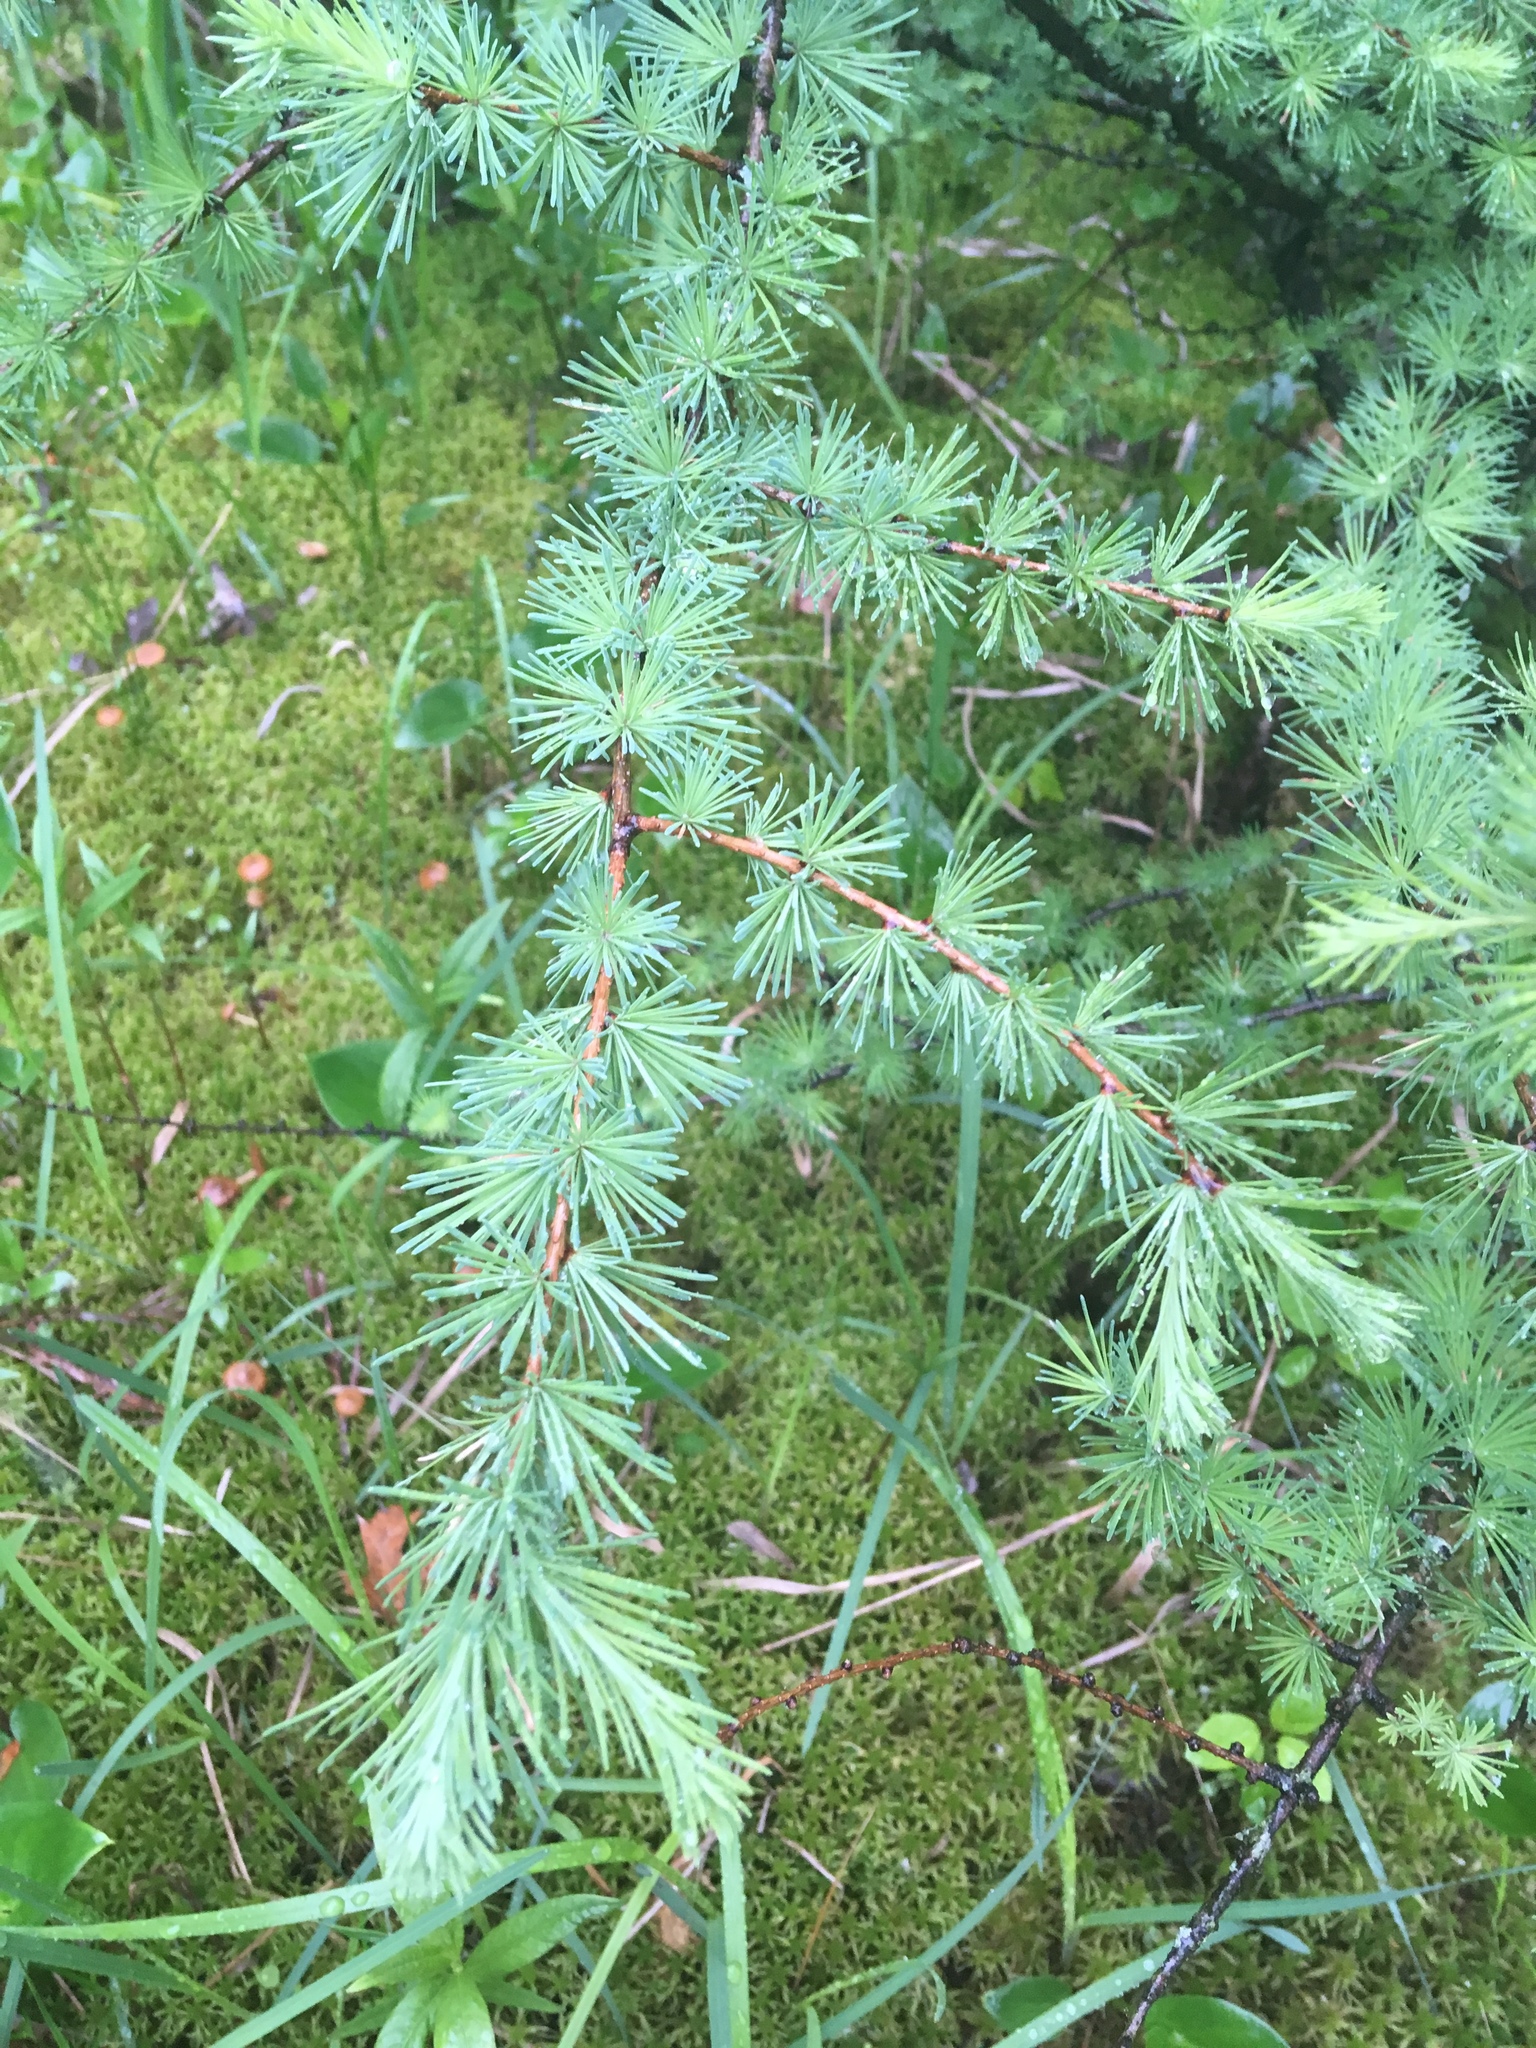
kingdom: Plantae
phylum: Tracheophyta
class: Pinopsida
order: Pinales
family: Pinaceae
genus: Larix
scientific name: Larix laricina
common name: American larch
